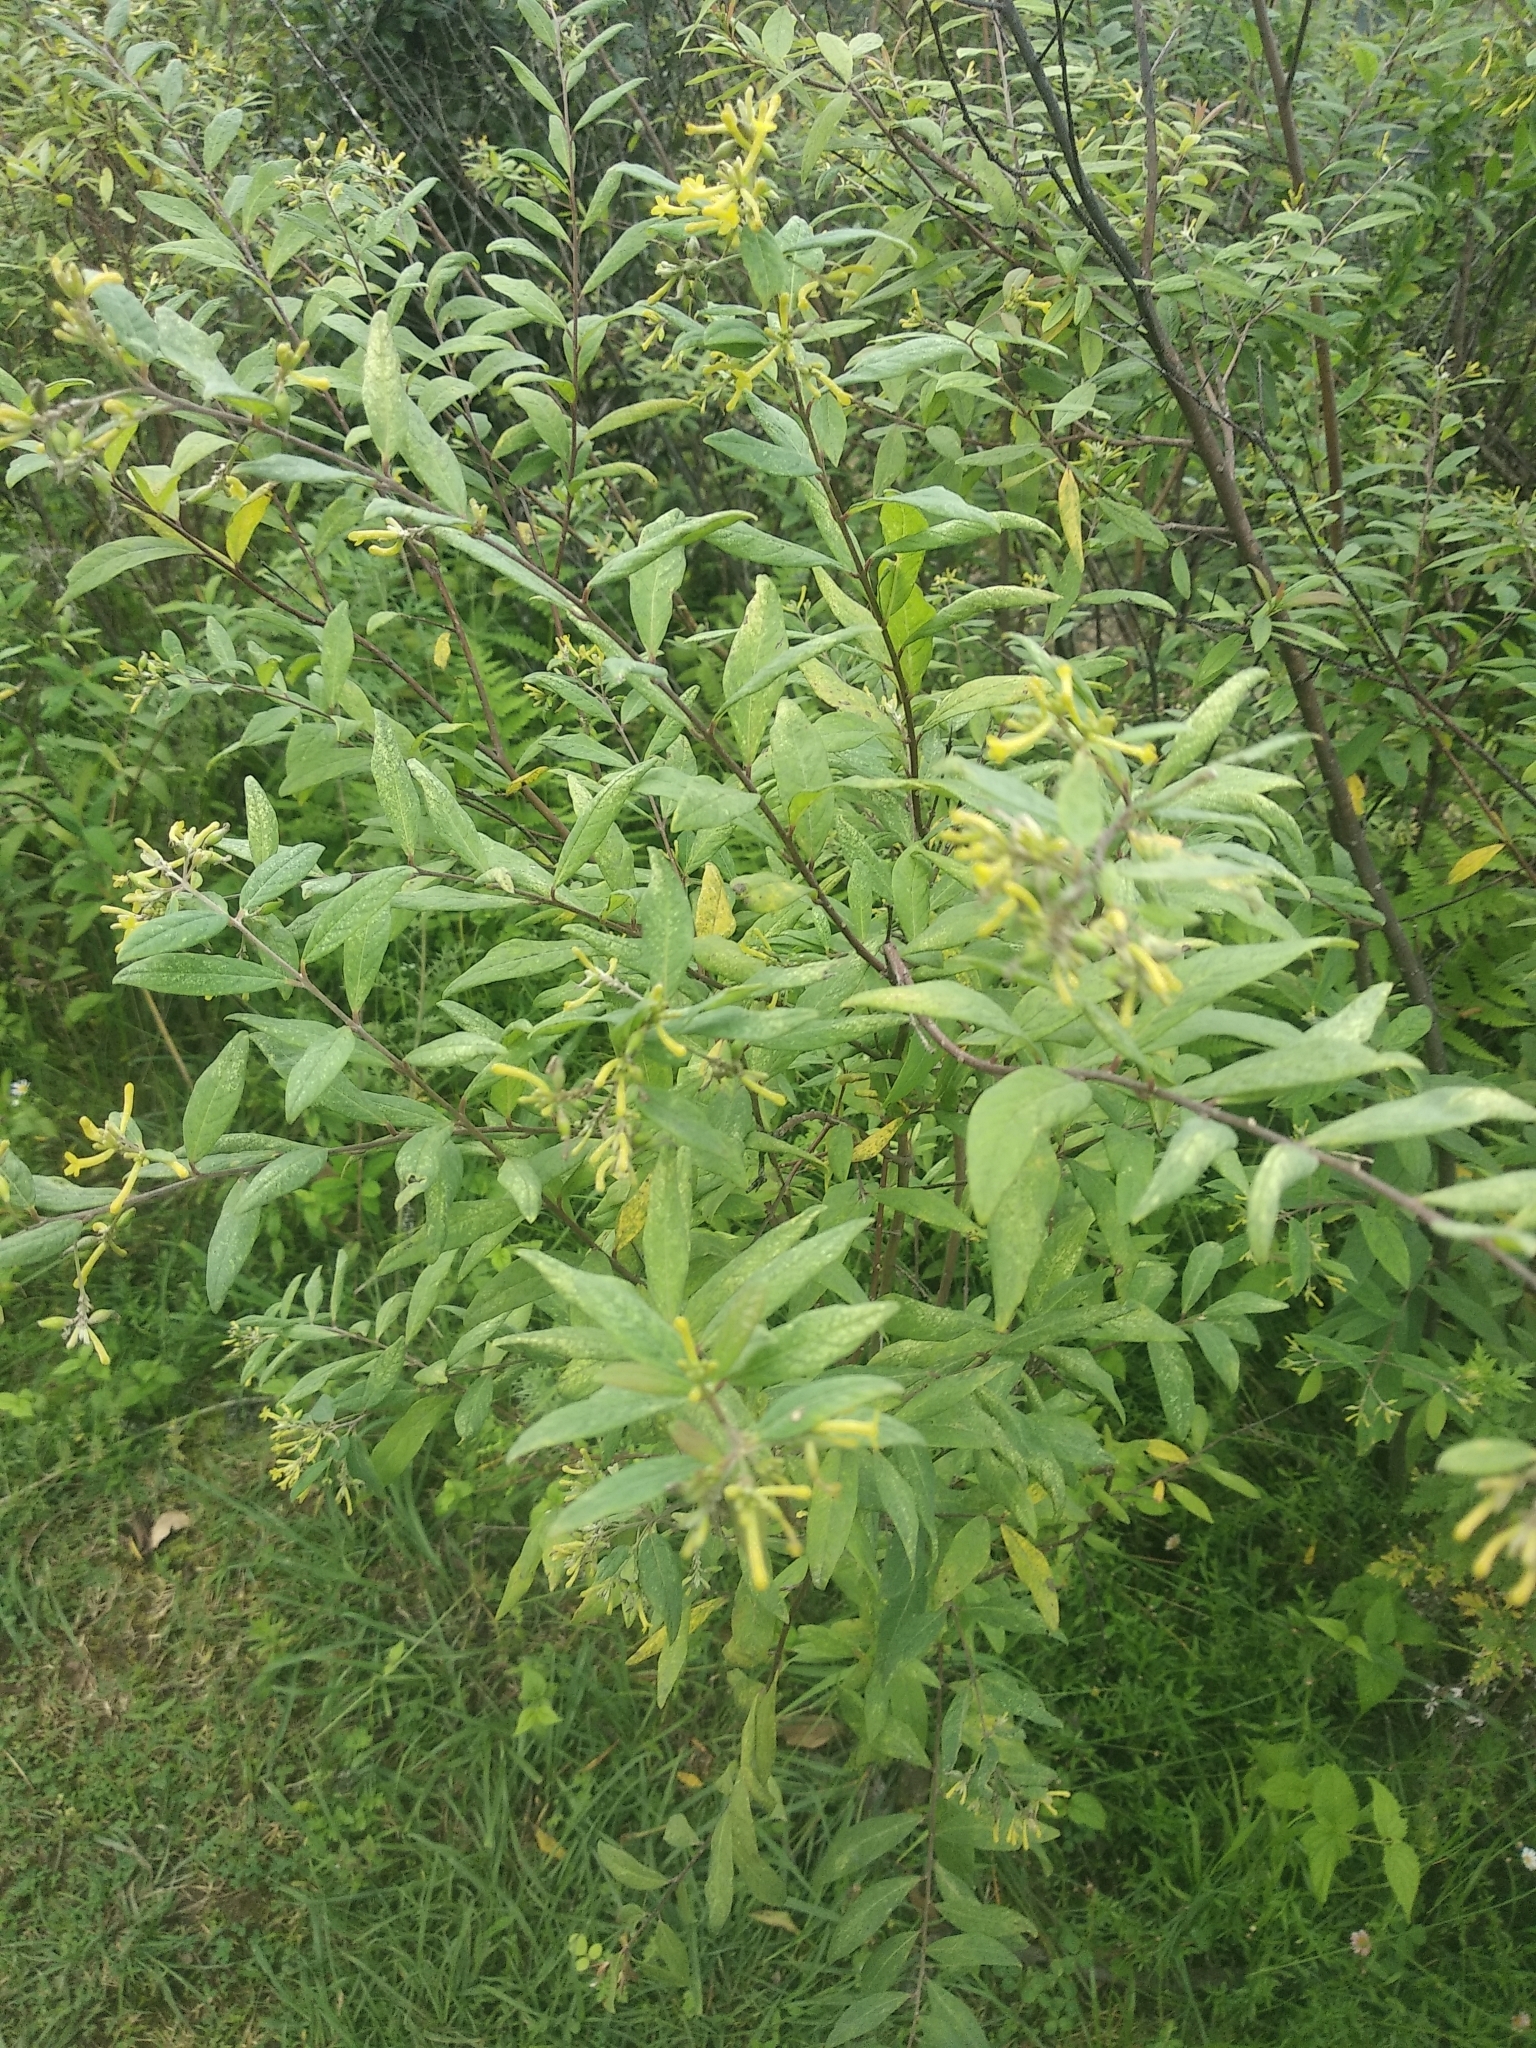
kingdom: Plantae
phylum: Tracheophyta
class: Magnoliopsida
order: Malvales
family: Thymelaeaceae
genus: Wikstroemia
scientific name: Wikstroemia canescens
